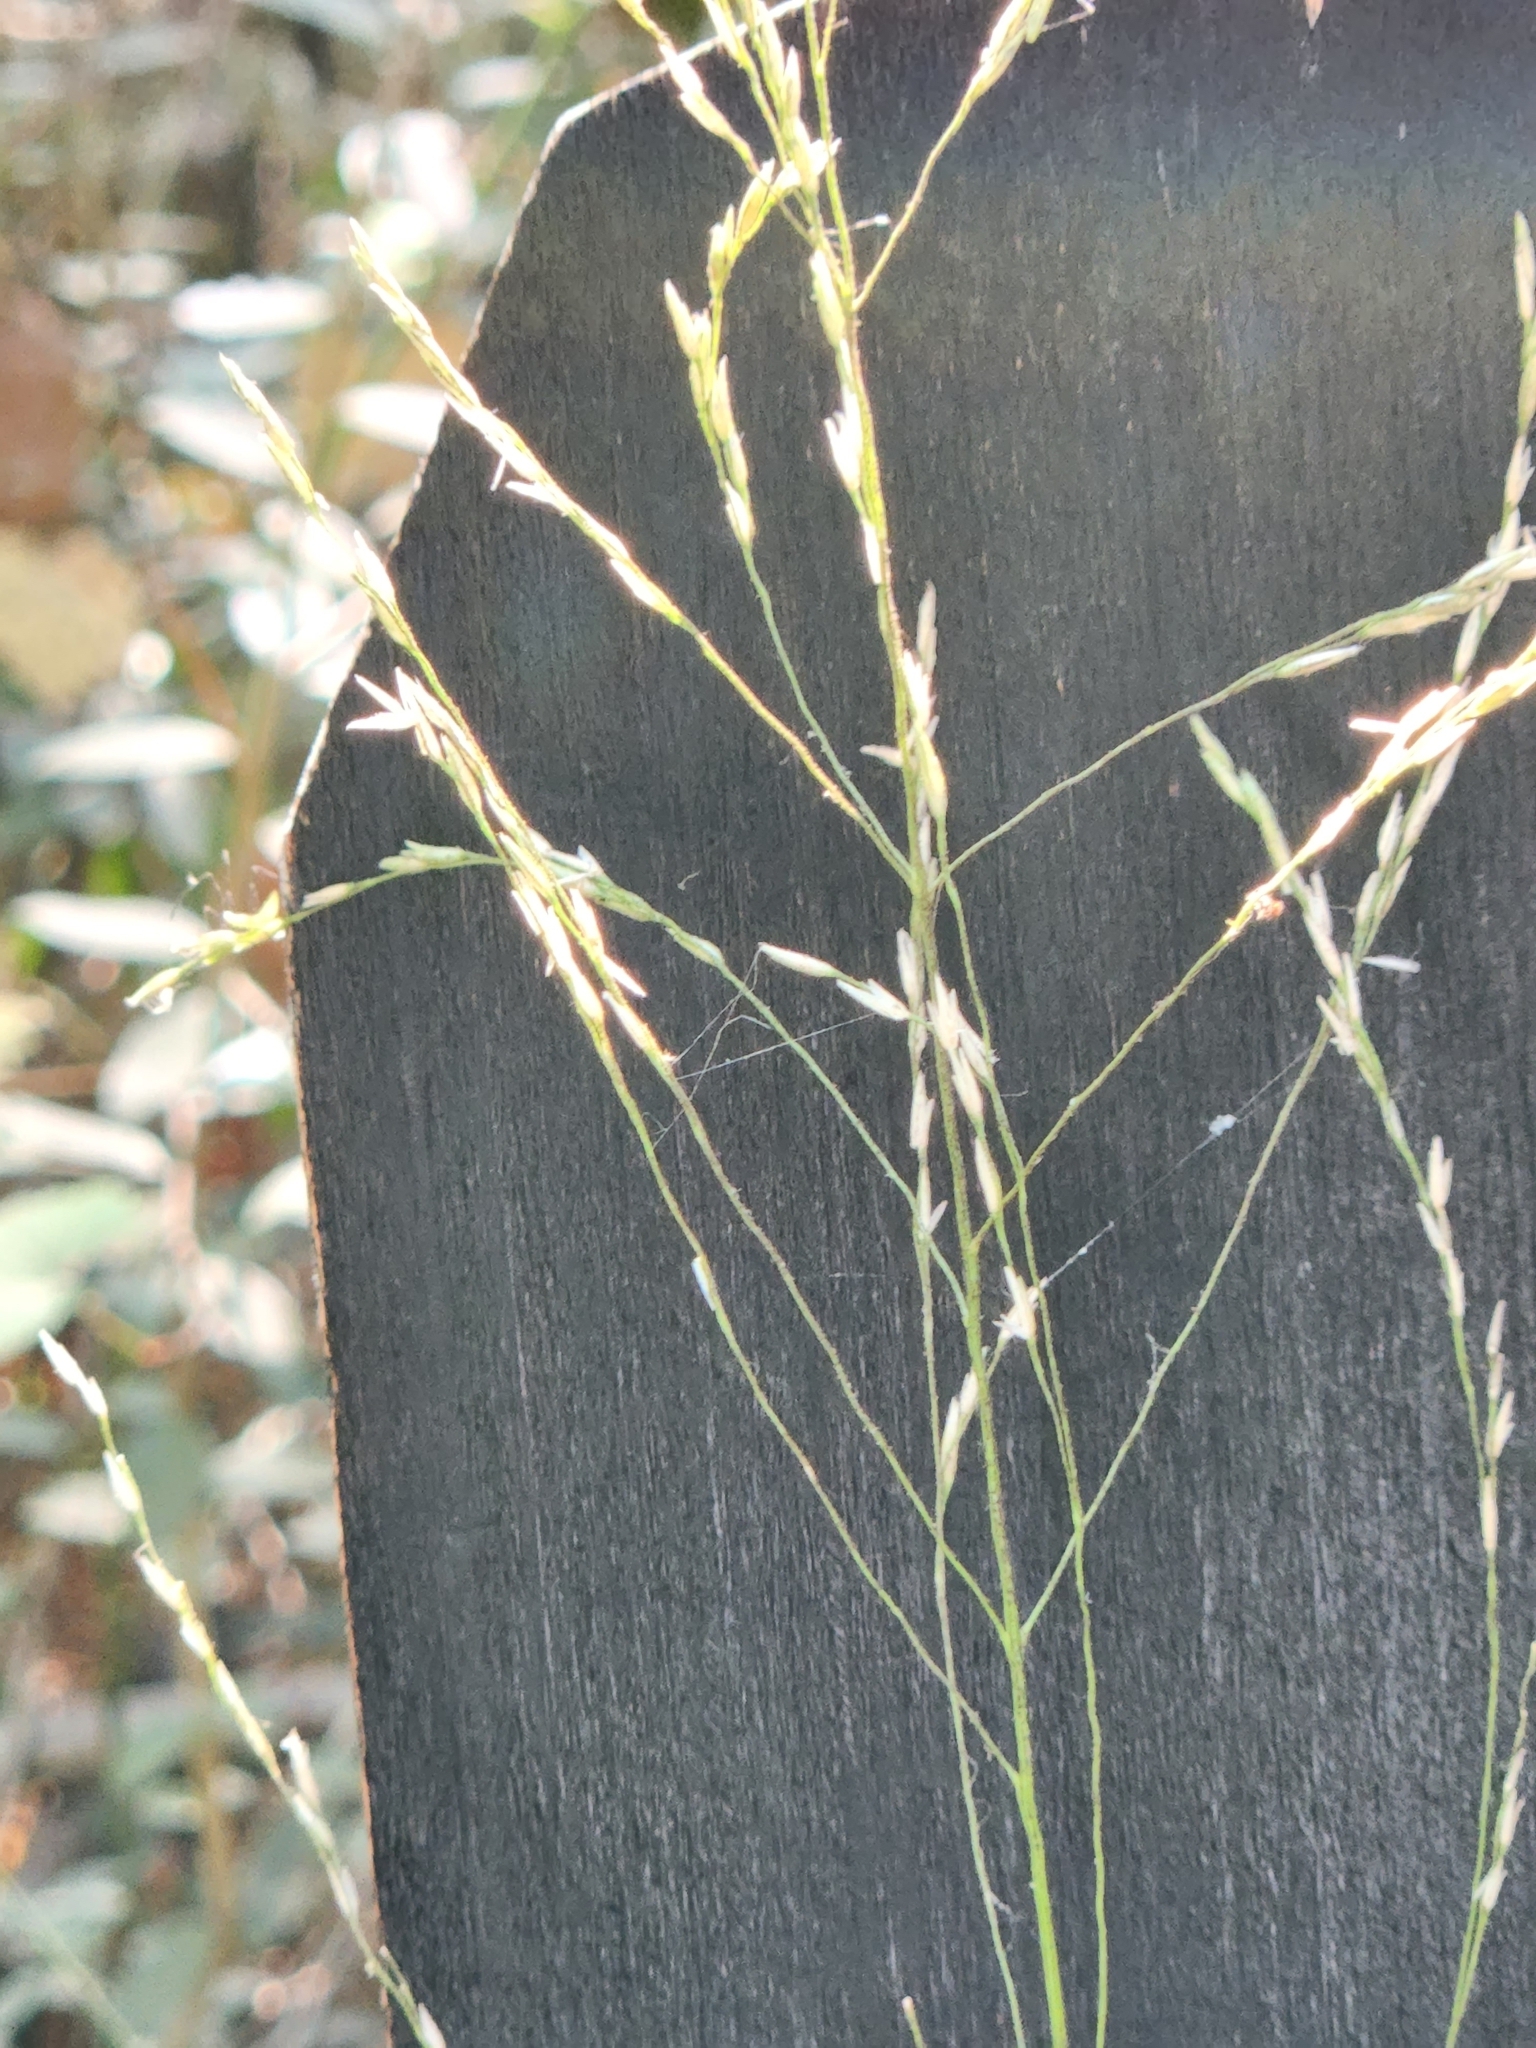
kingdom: Plantae
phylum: Tracheophyta
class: Liliopsida
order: Poales
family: Poaceae
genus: Tridens
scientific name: Tridens flavus
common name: Purpletop
